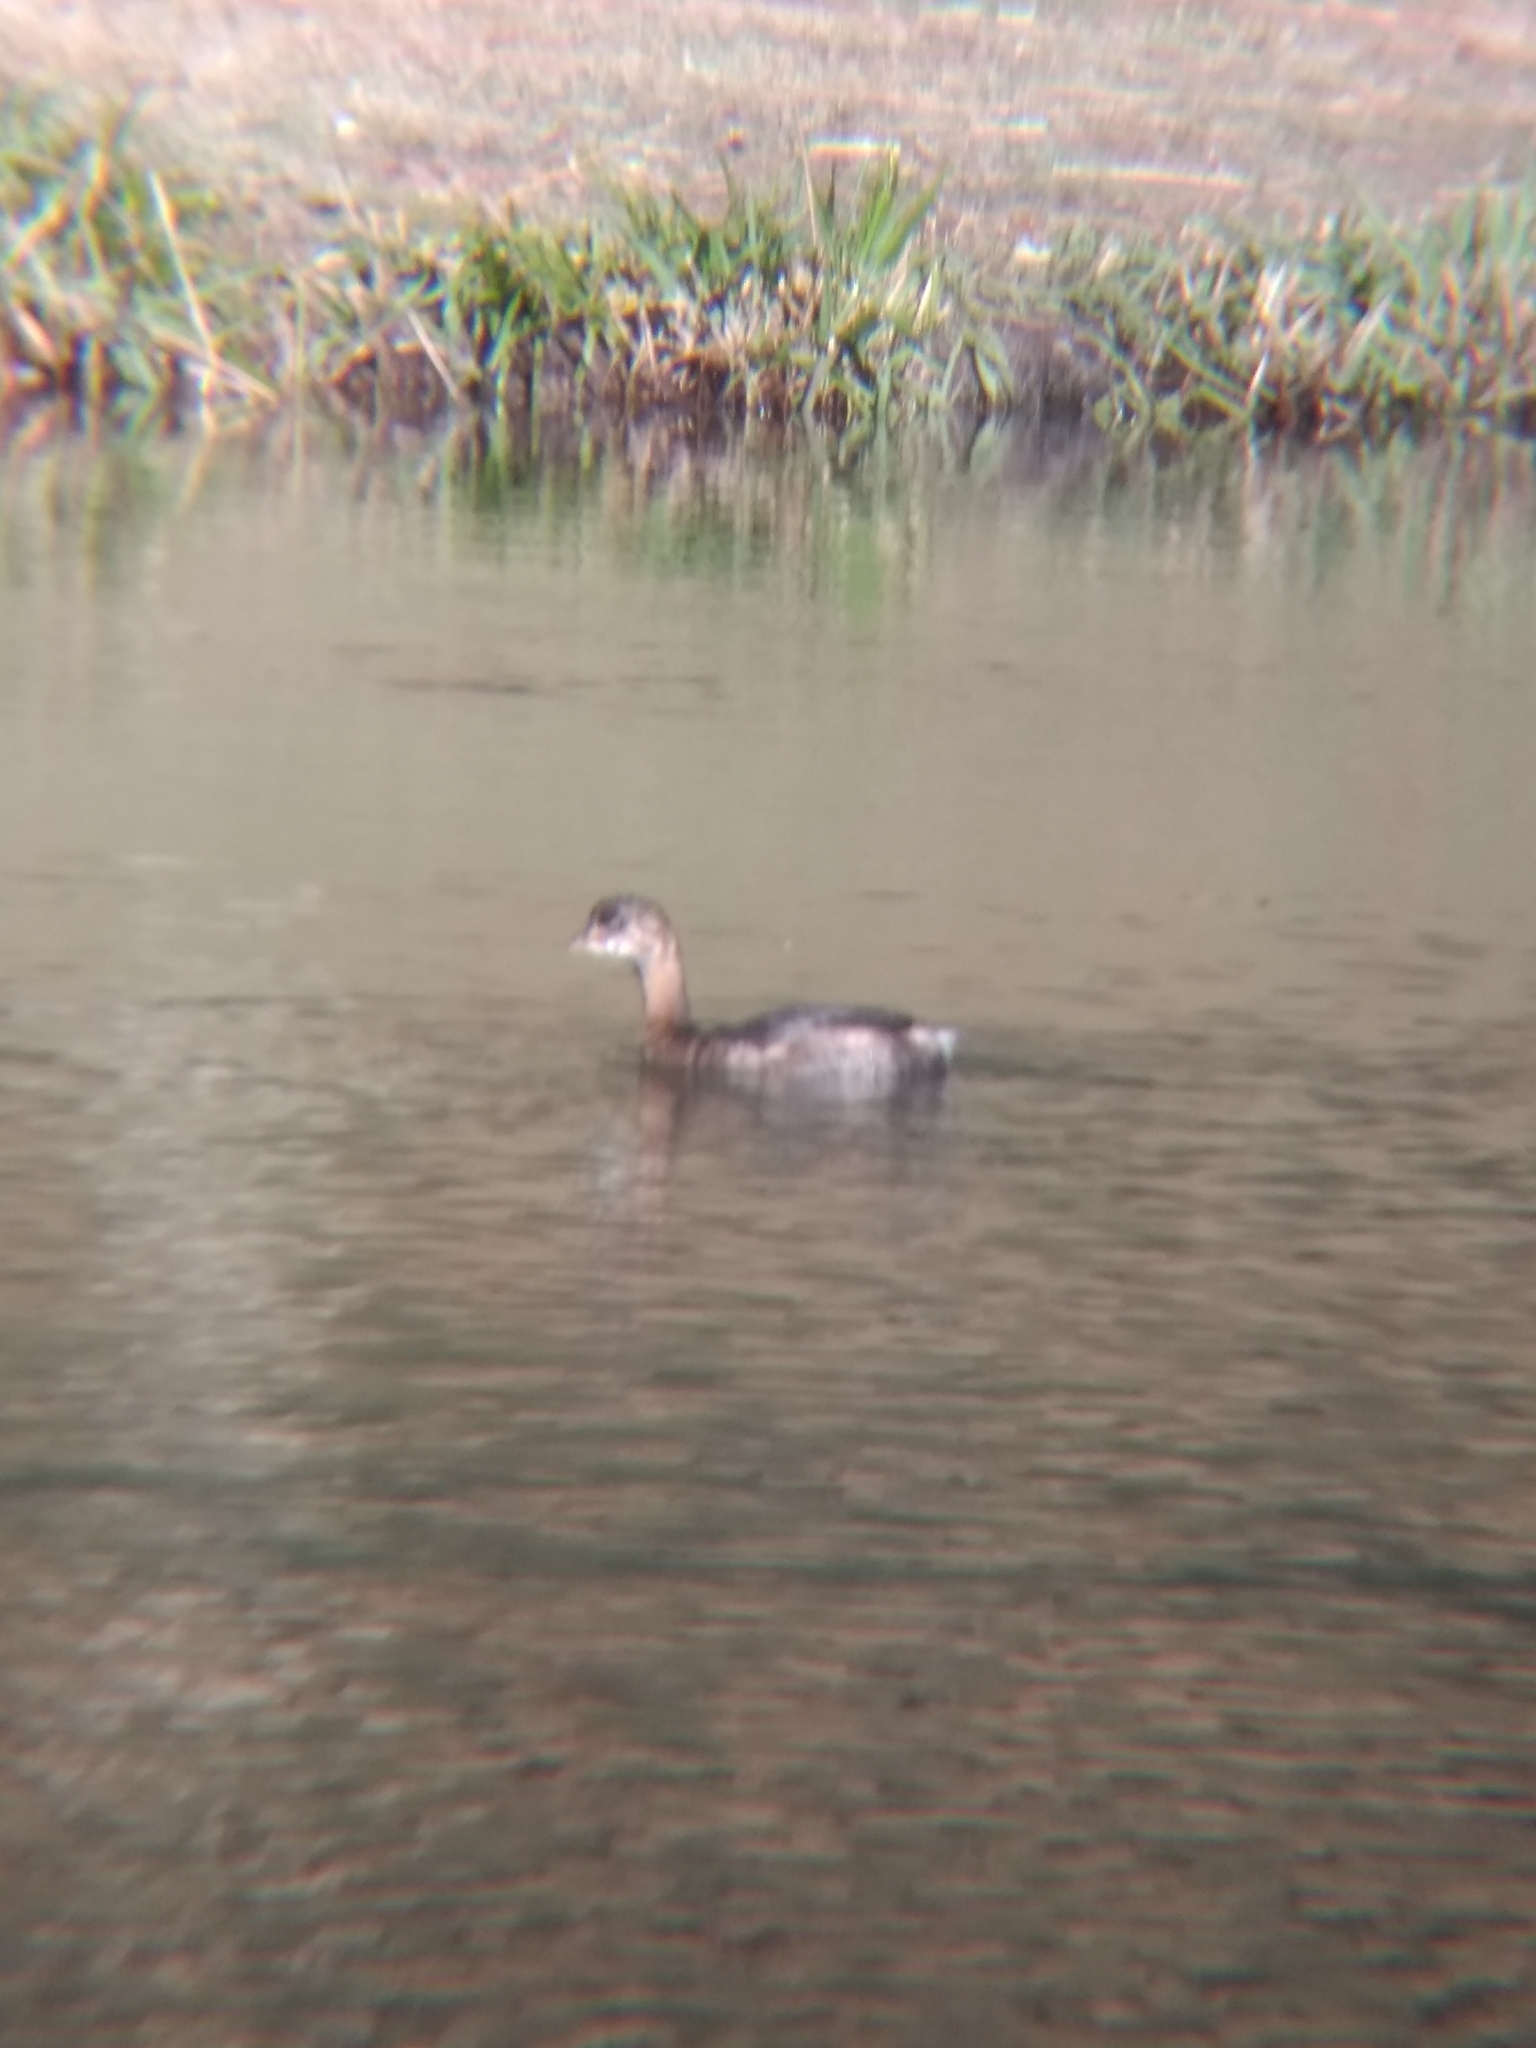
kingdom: Animalia
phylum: Chordata
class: Aves
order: Podicipediformes
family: Podicipedidae
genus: Podilymbus
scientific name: Podilymbus podiceps
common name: Pied-billed grebe
